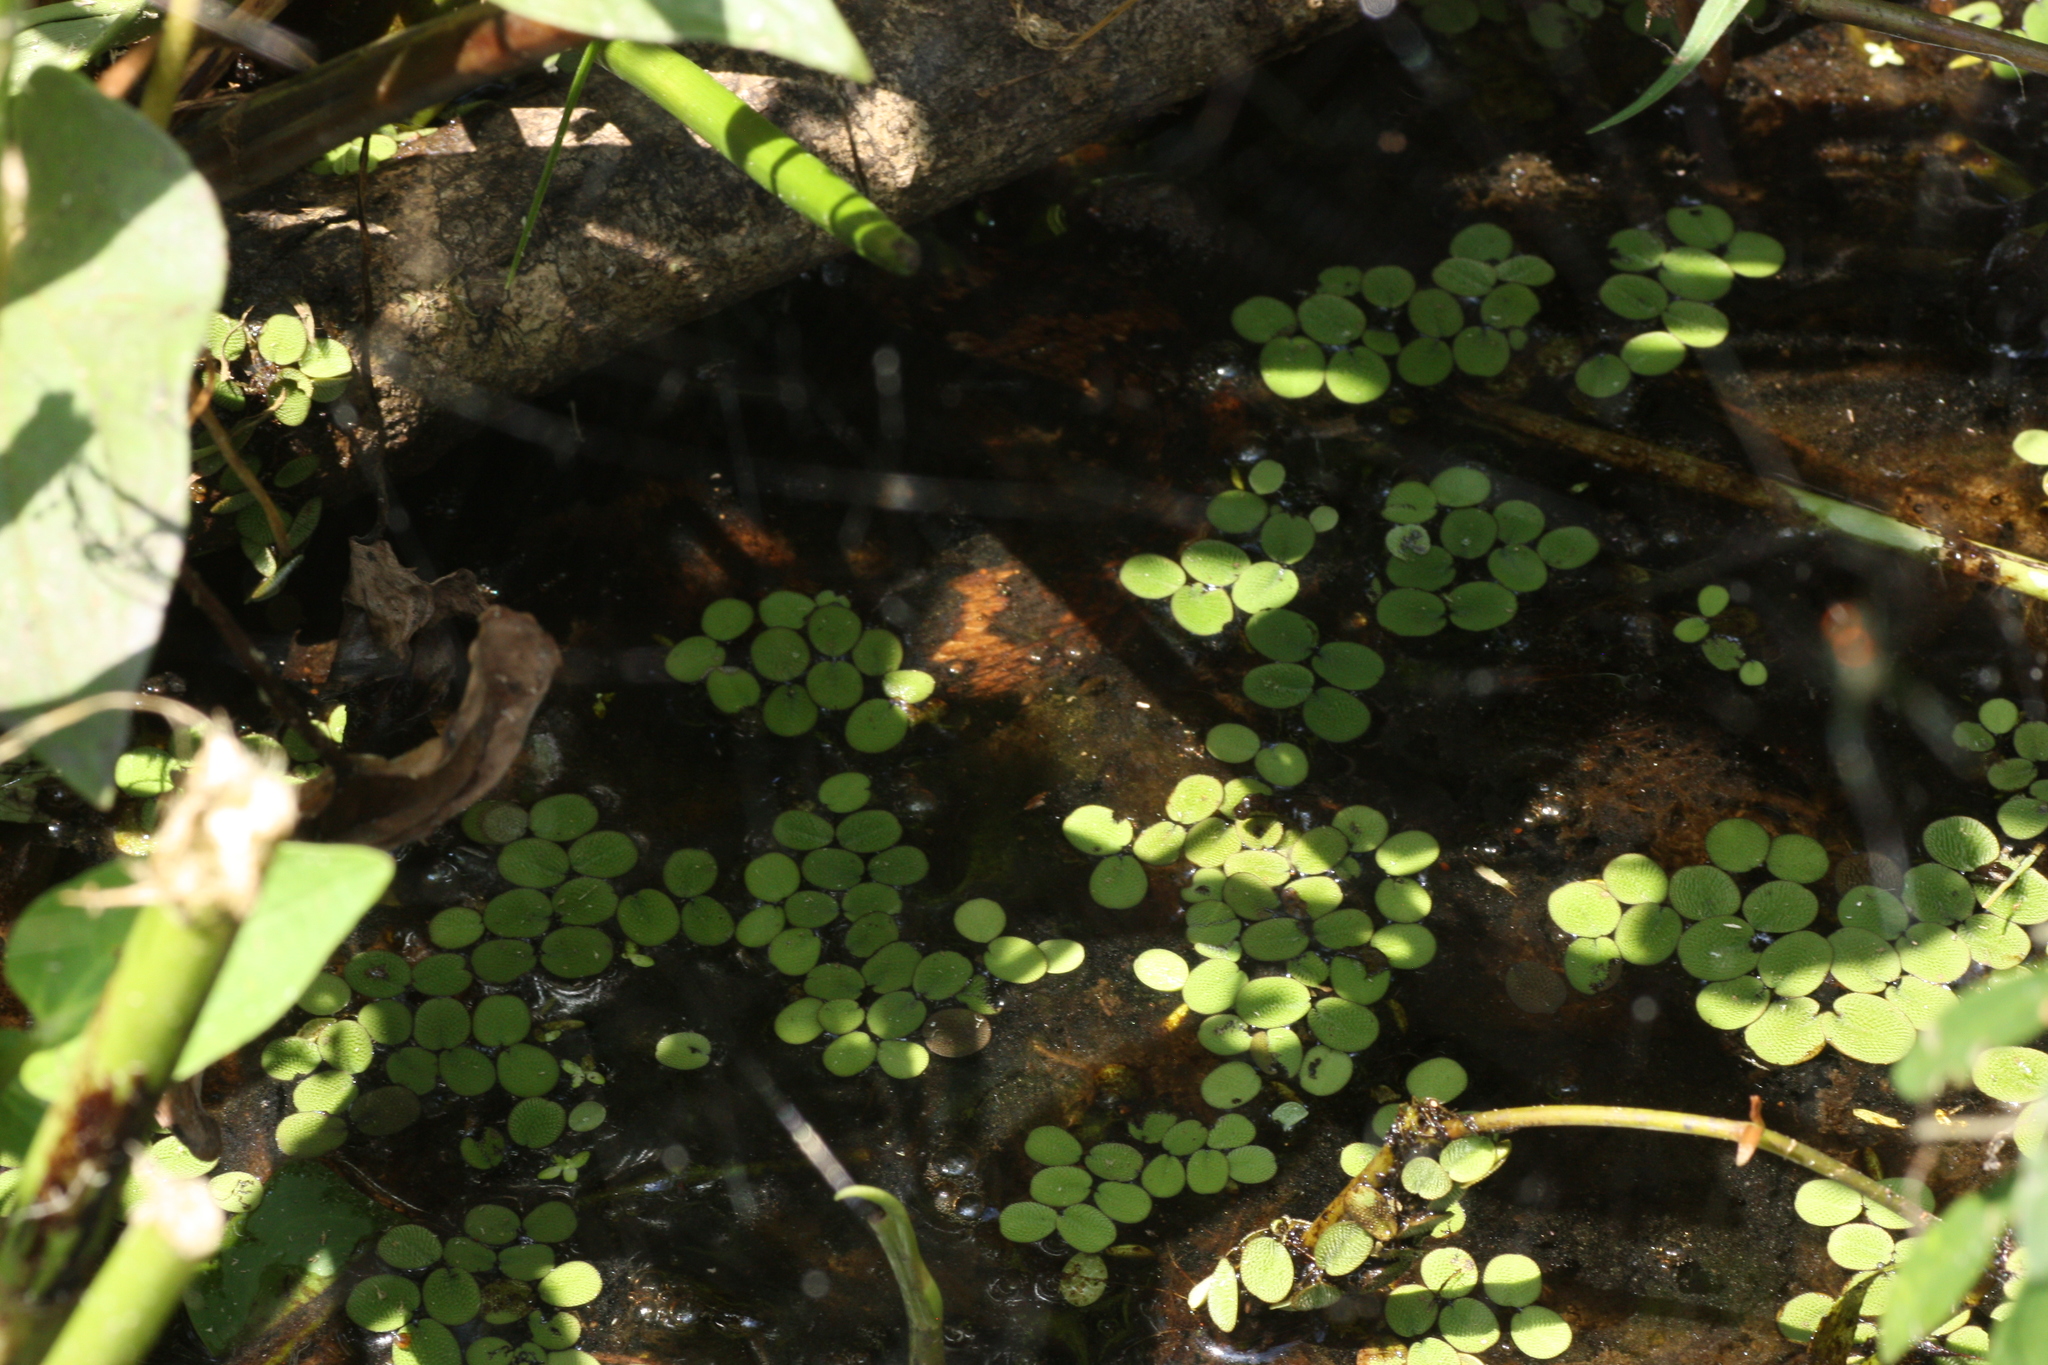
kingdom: Animalia
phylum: Chordata
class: Squamata
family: Colubridae
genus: Nerodia
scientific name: Nerodia fasciata
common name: Southern water snake
